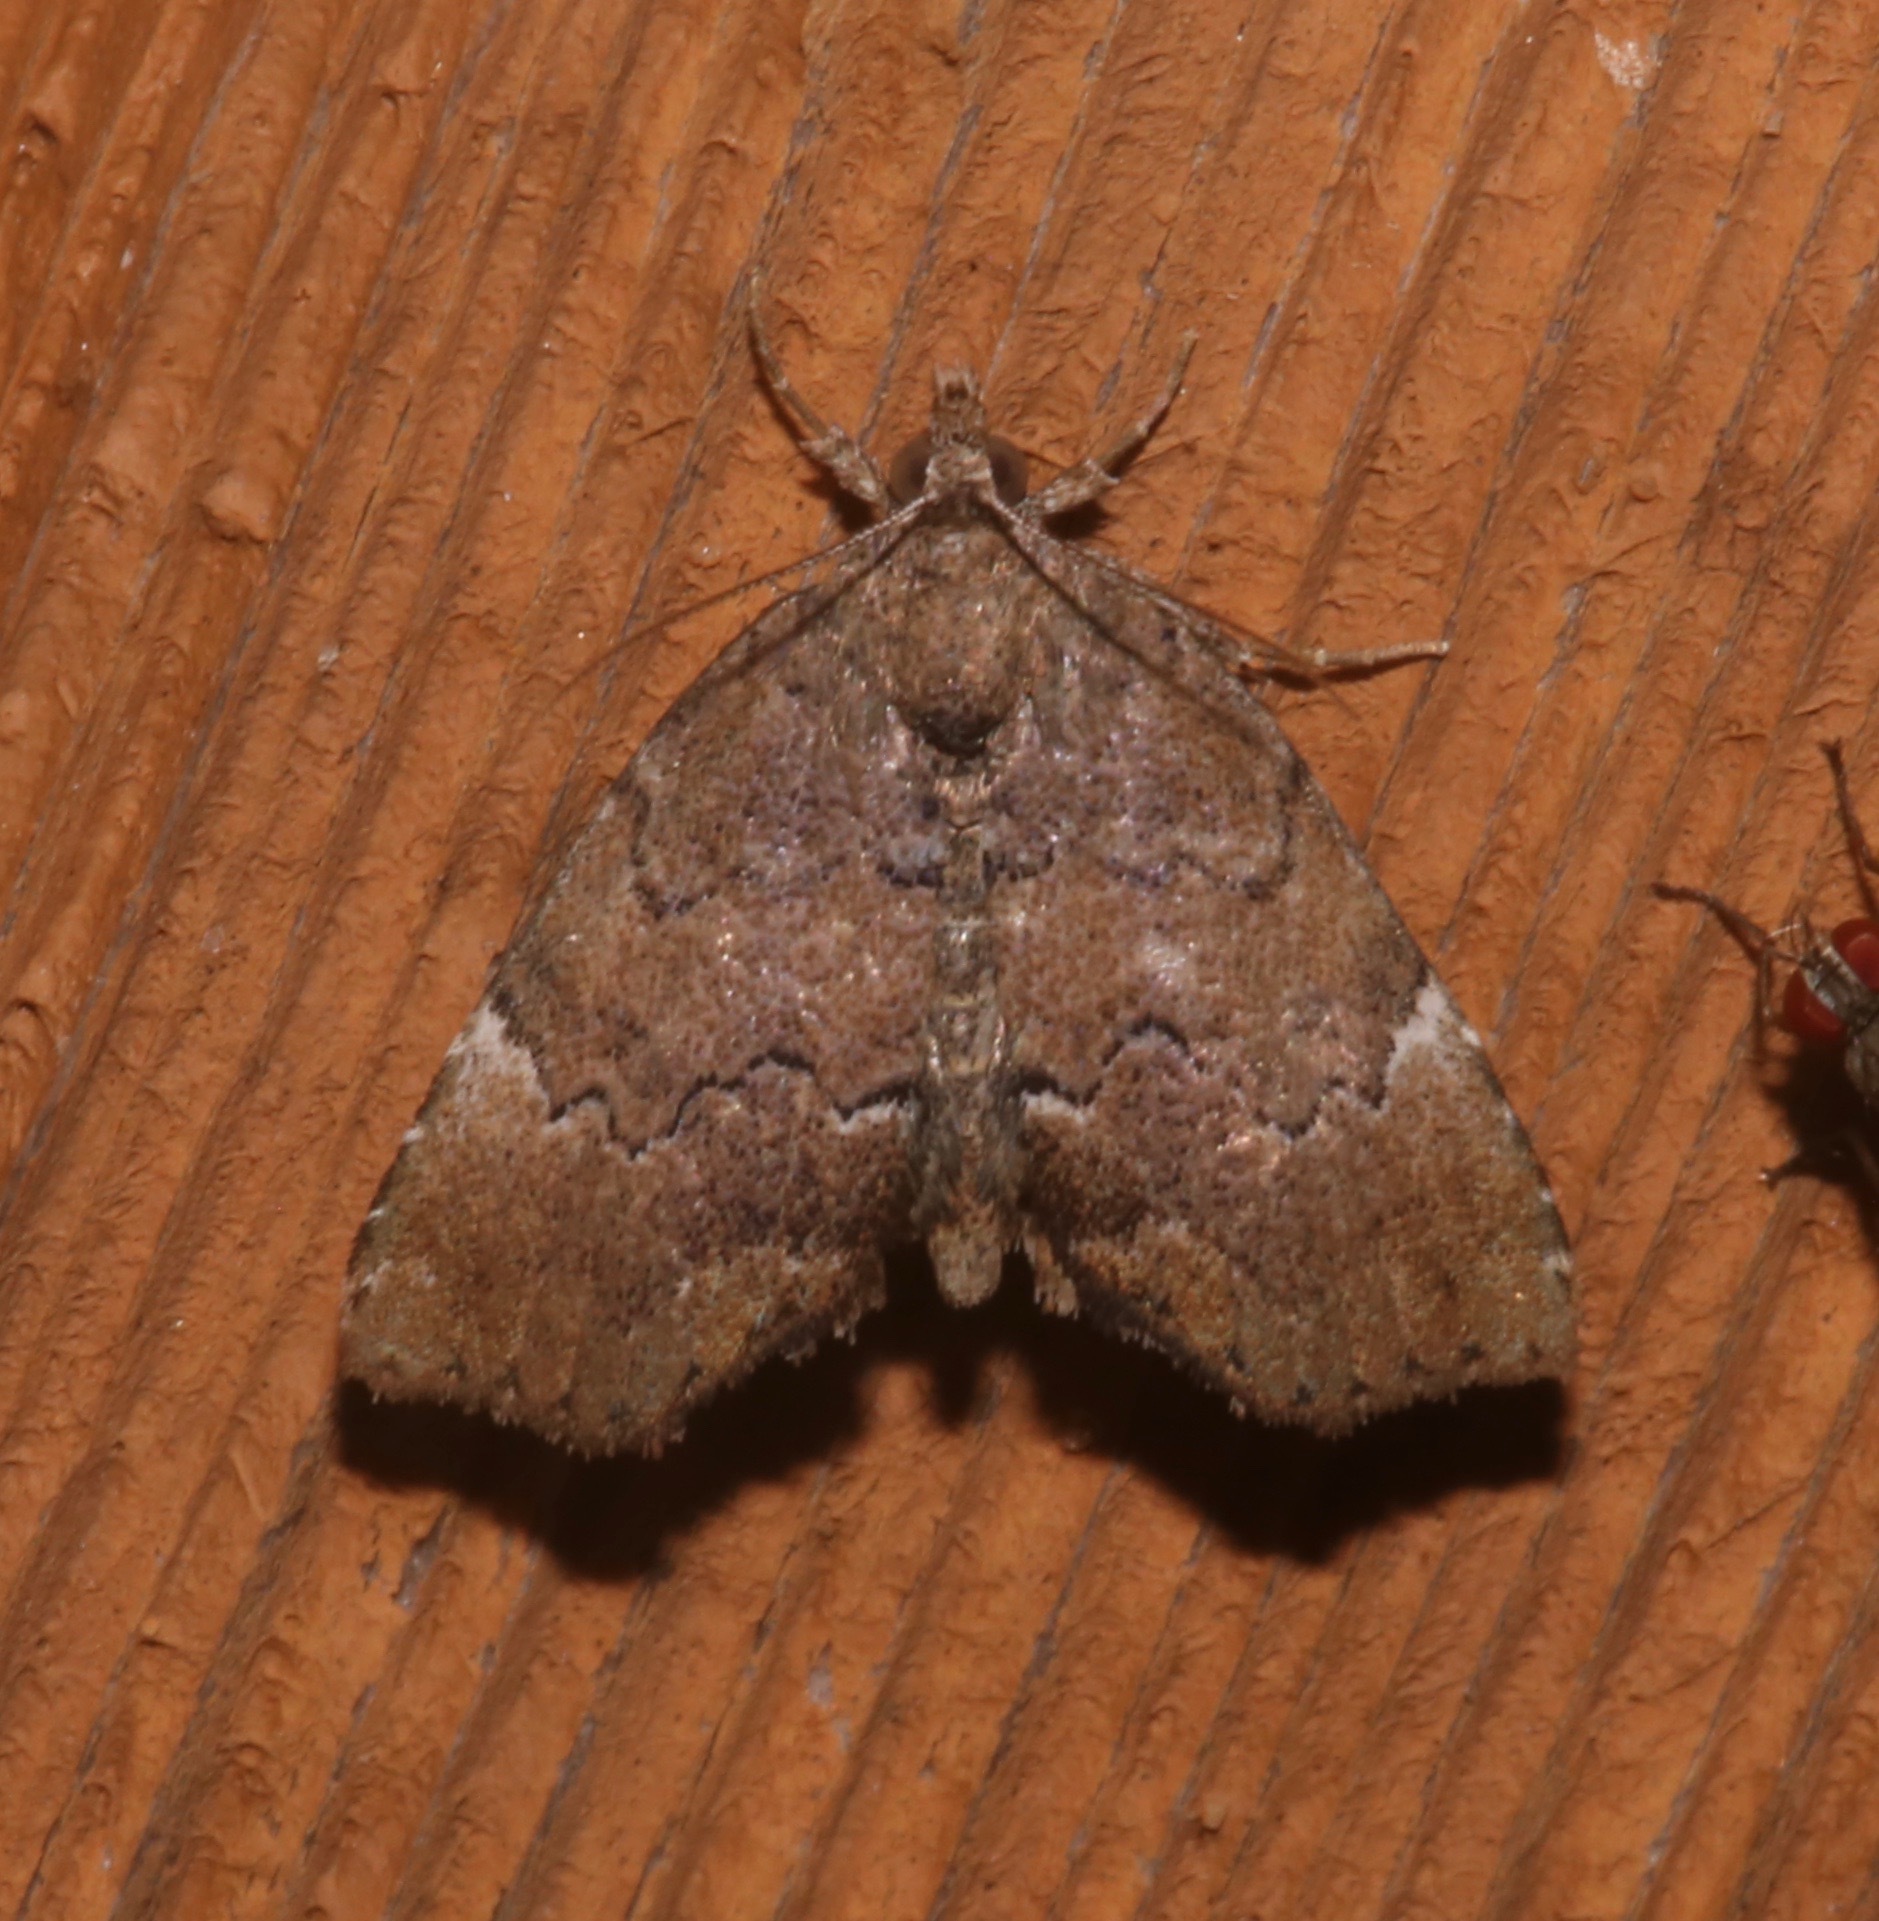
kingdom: Animalia
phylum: Arthropoda
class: Insecta
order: Lepidoptera
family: Erebidae
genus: Cutina
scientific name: Cutina aluticolor
